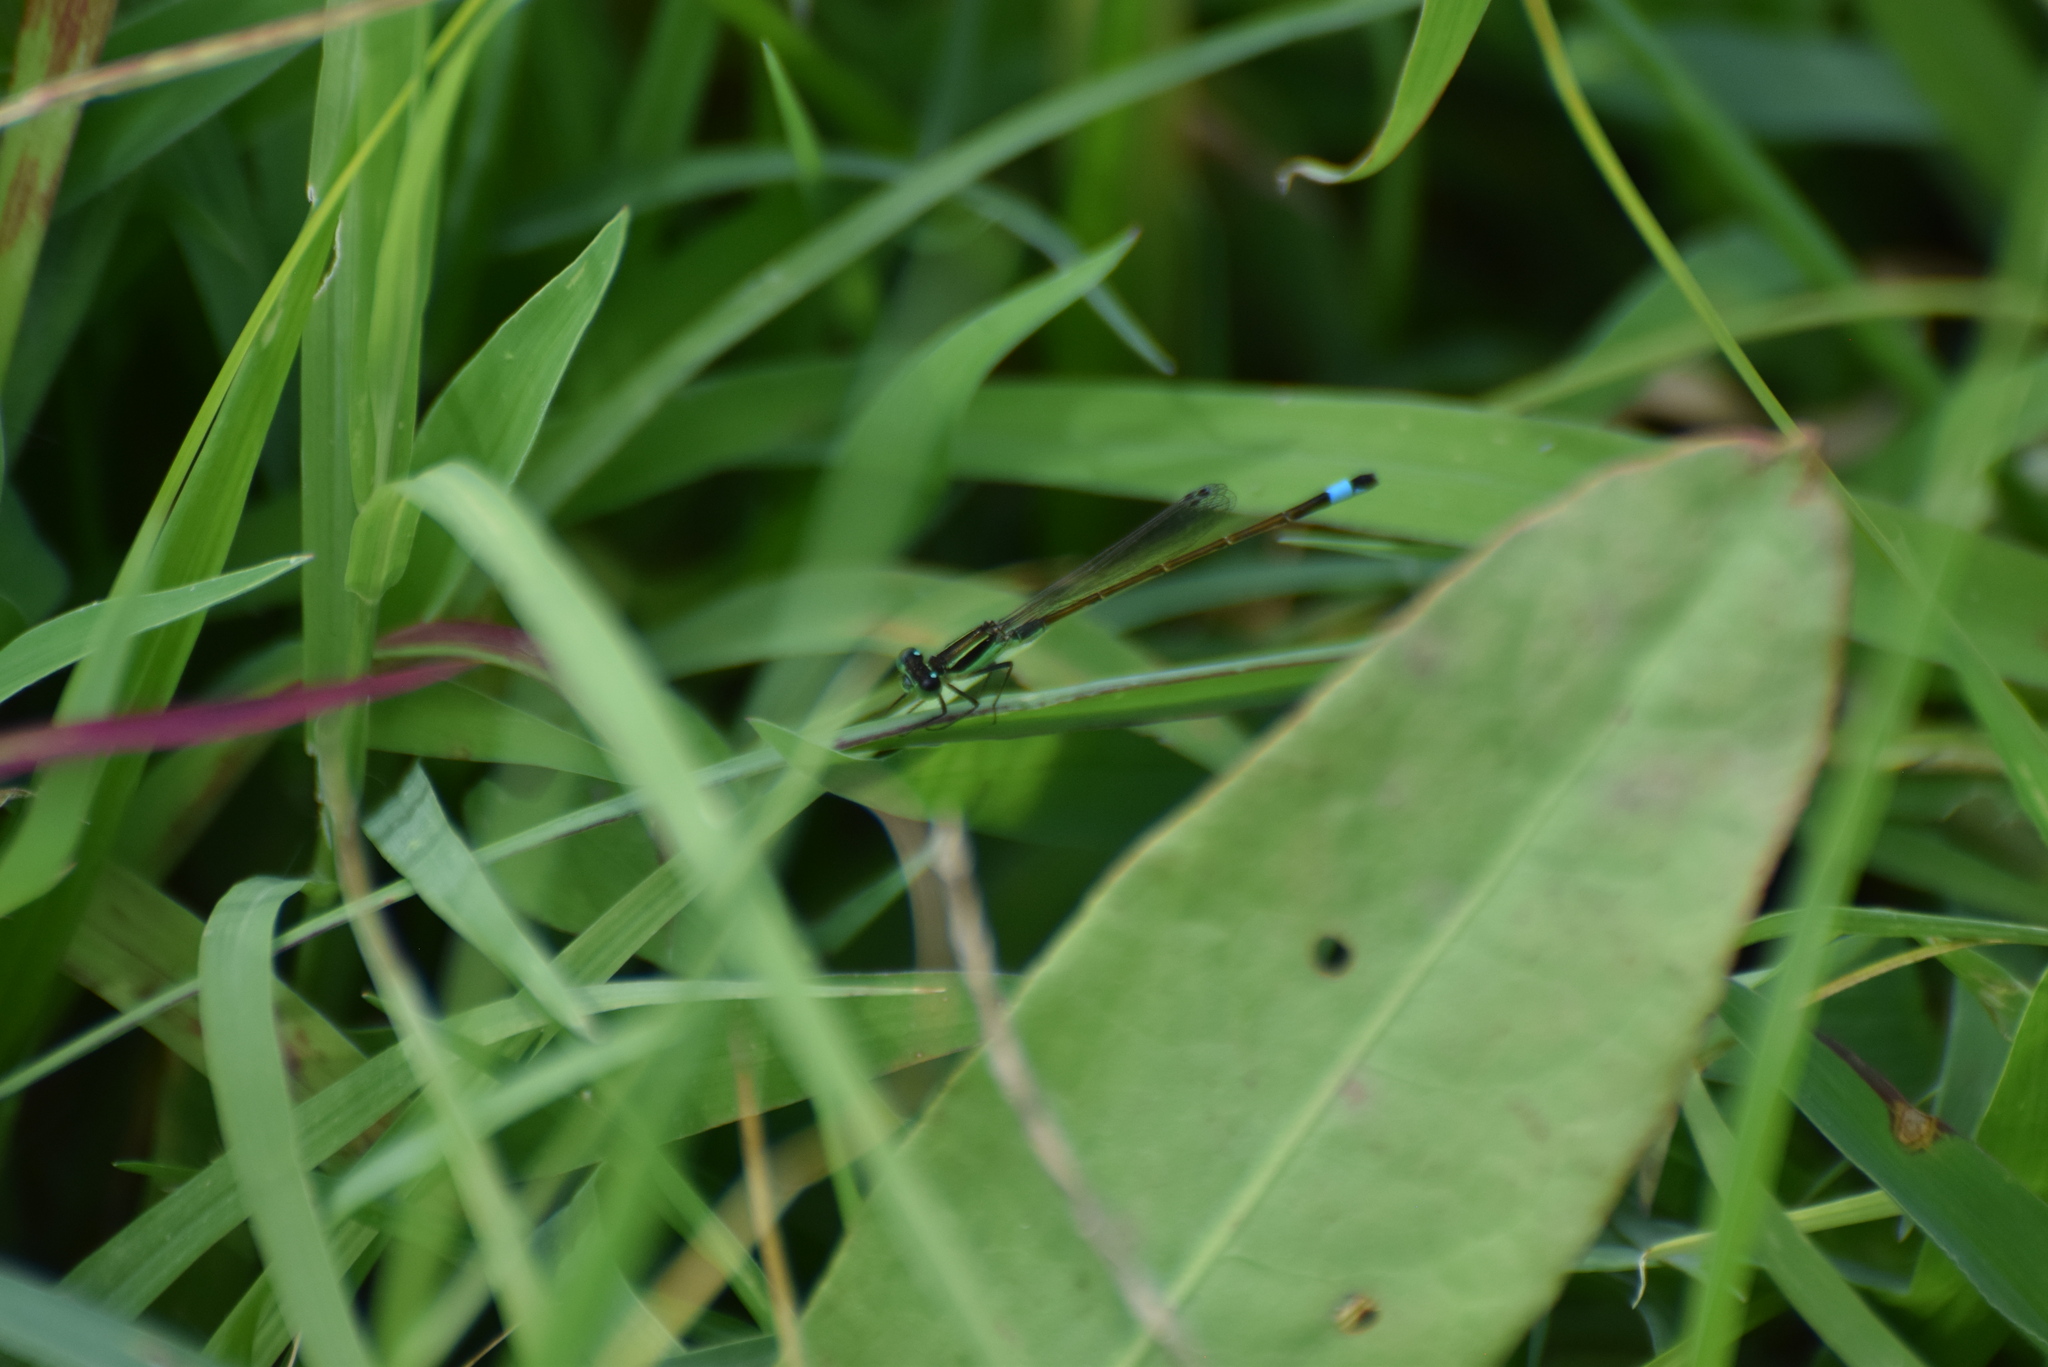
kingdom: Animalia
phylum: Arthropoda
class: Insecta
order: Odonata
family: Coenagrionidae
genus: Ischnura
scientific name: Ischnura ramburii
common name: Rambur's forktail
